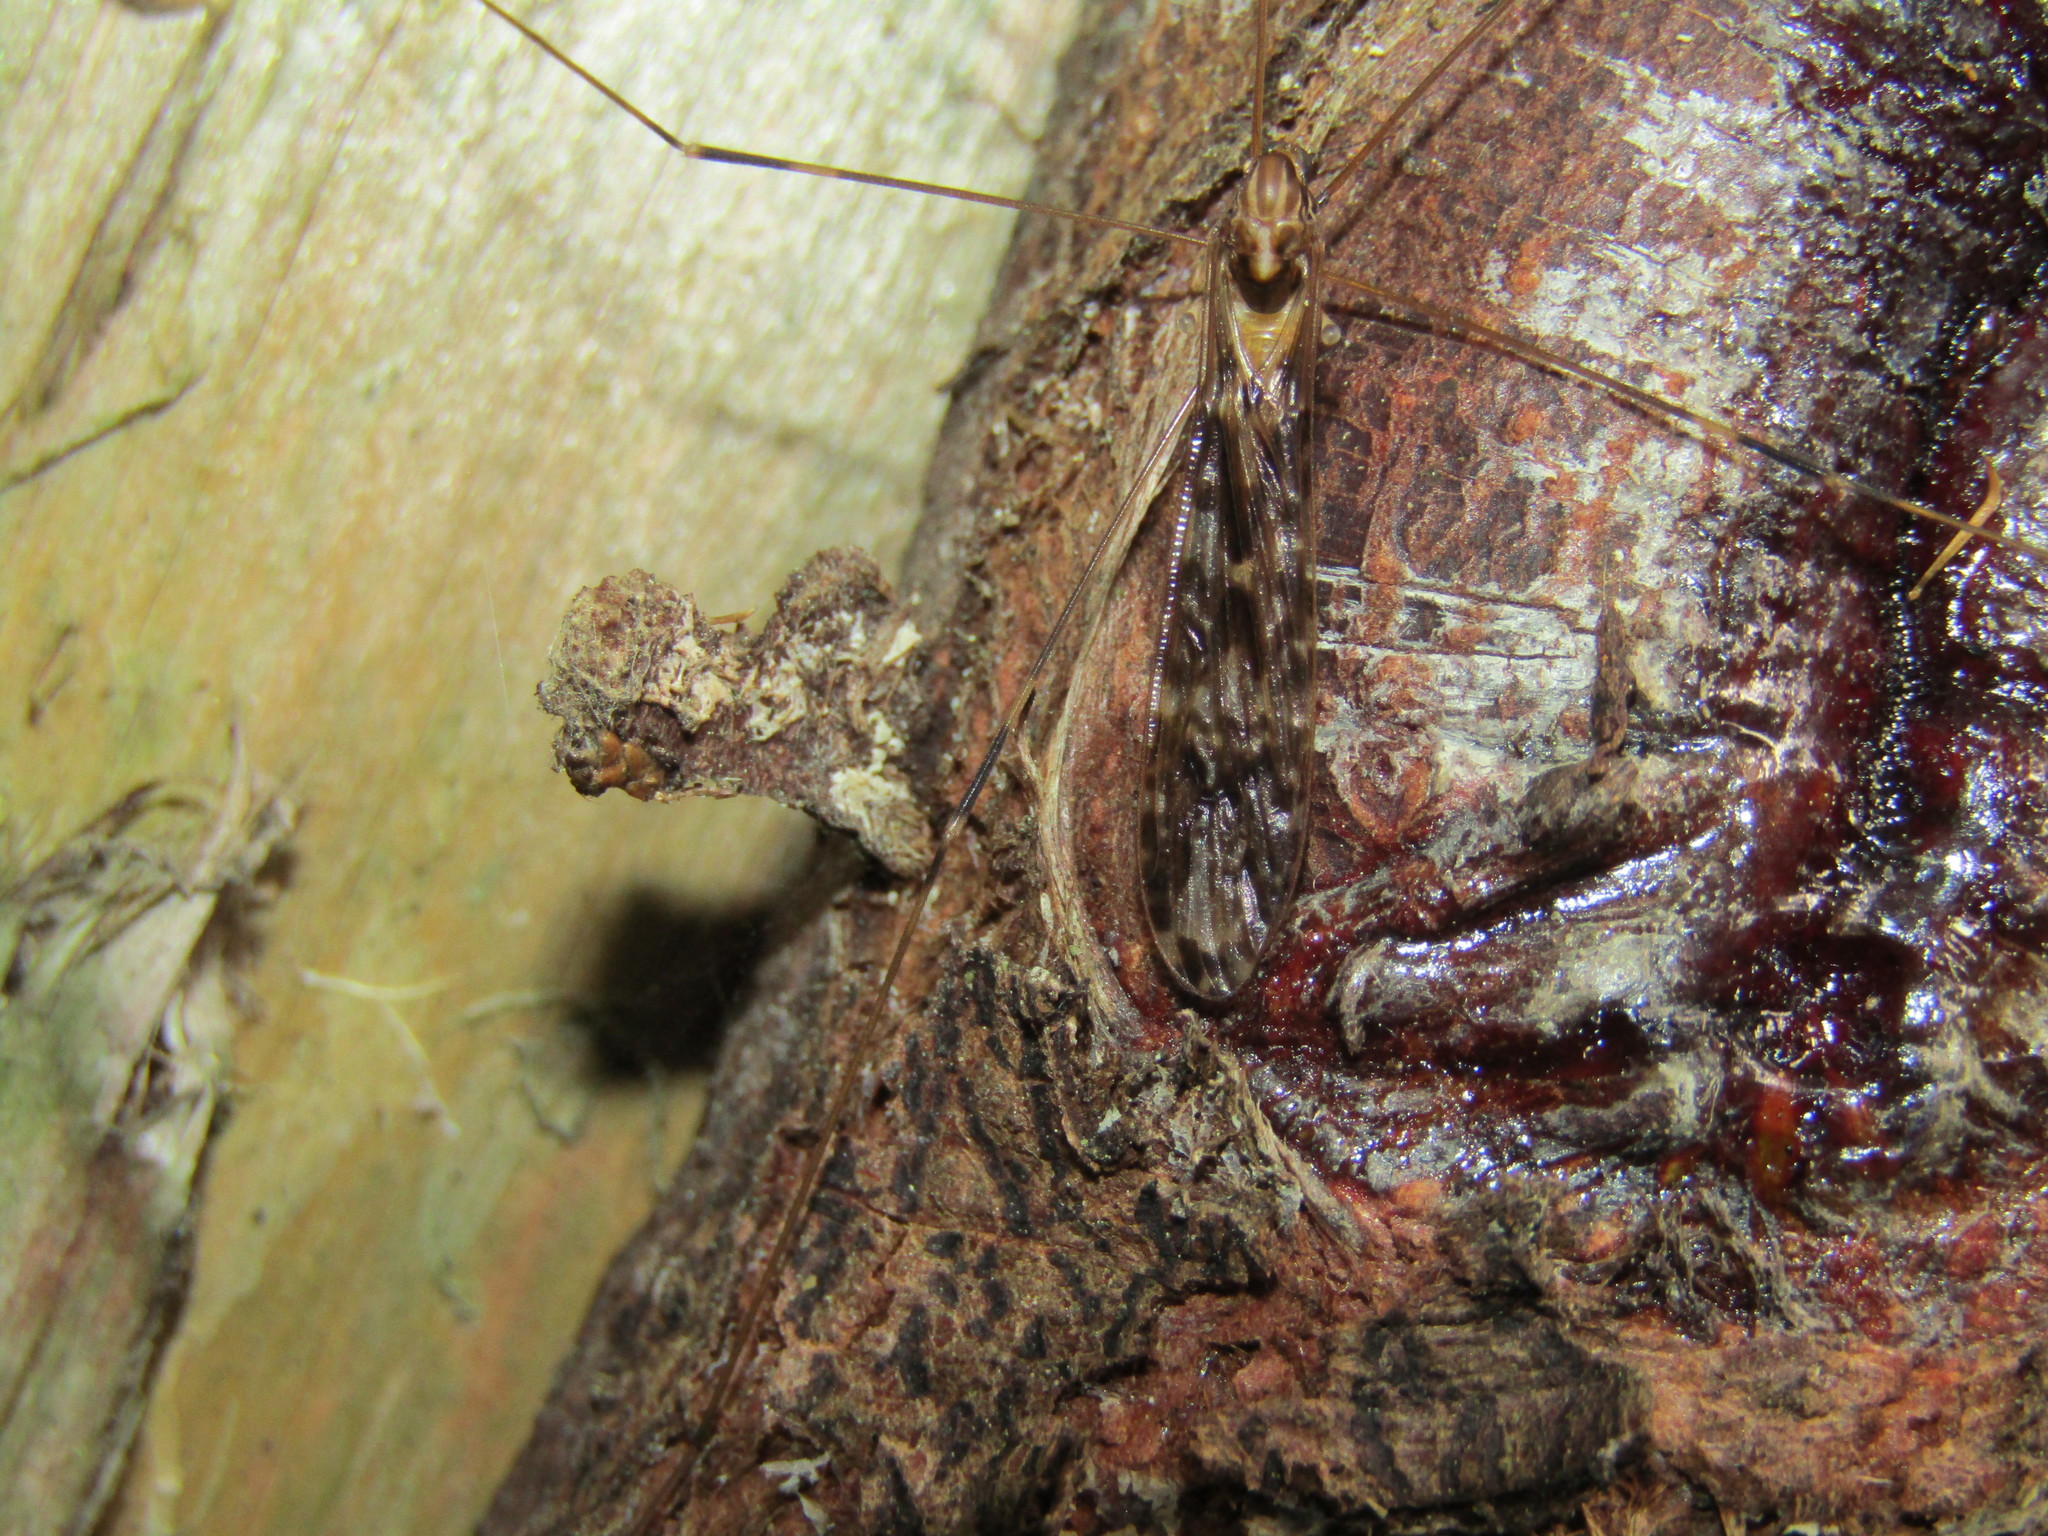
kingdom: Animalia
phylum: Arthropoda
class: Insecta
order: Diptera
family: Limoniidae
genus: Discobola
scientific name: Discobola dohrni
